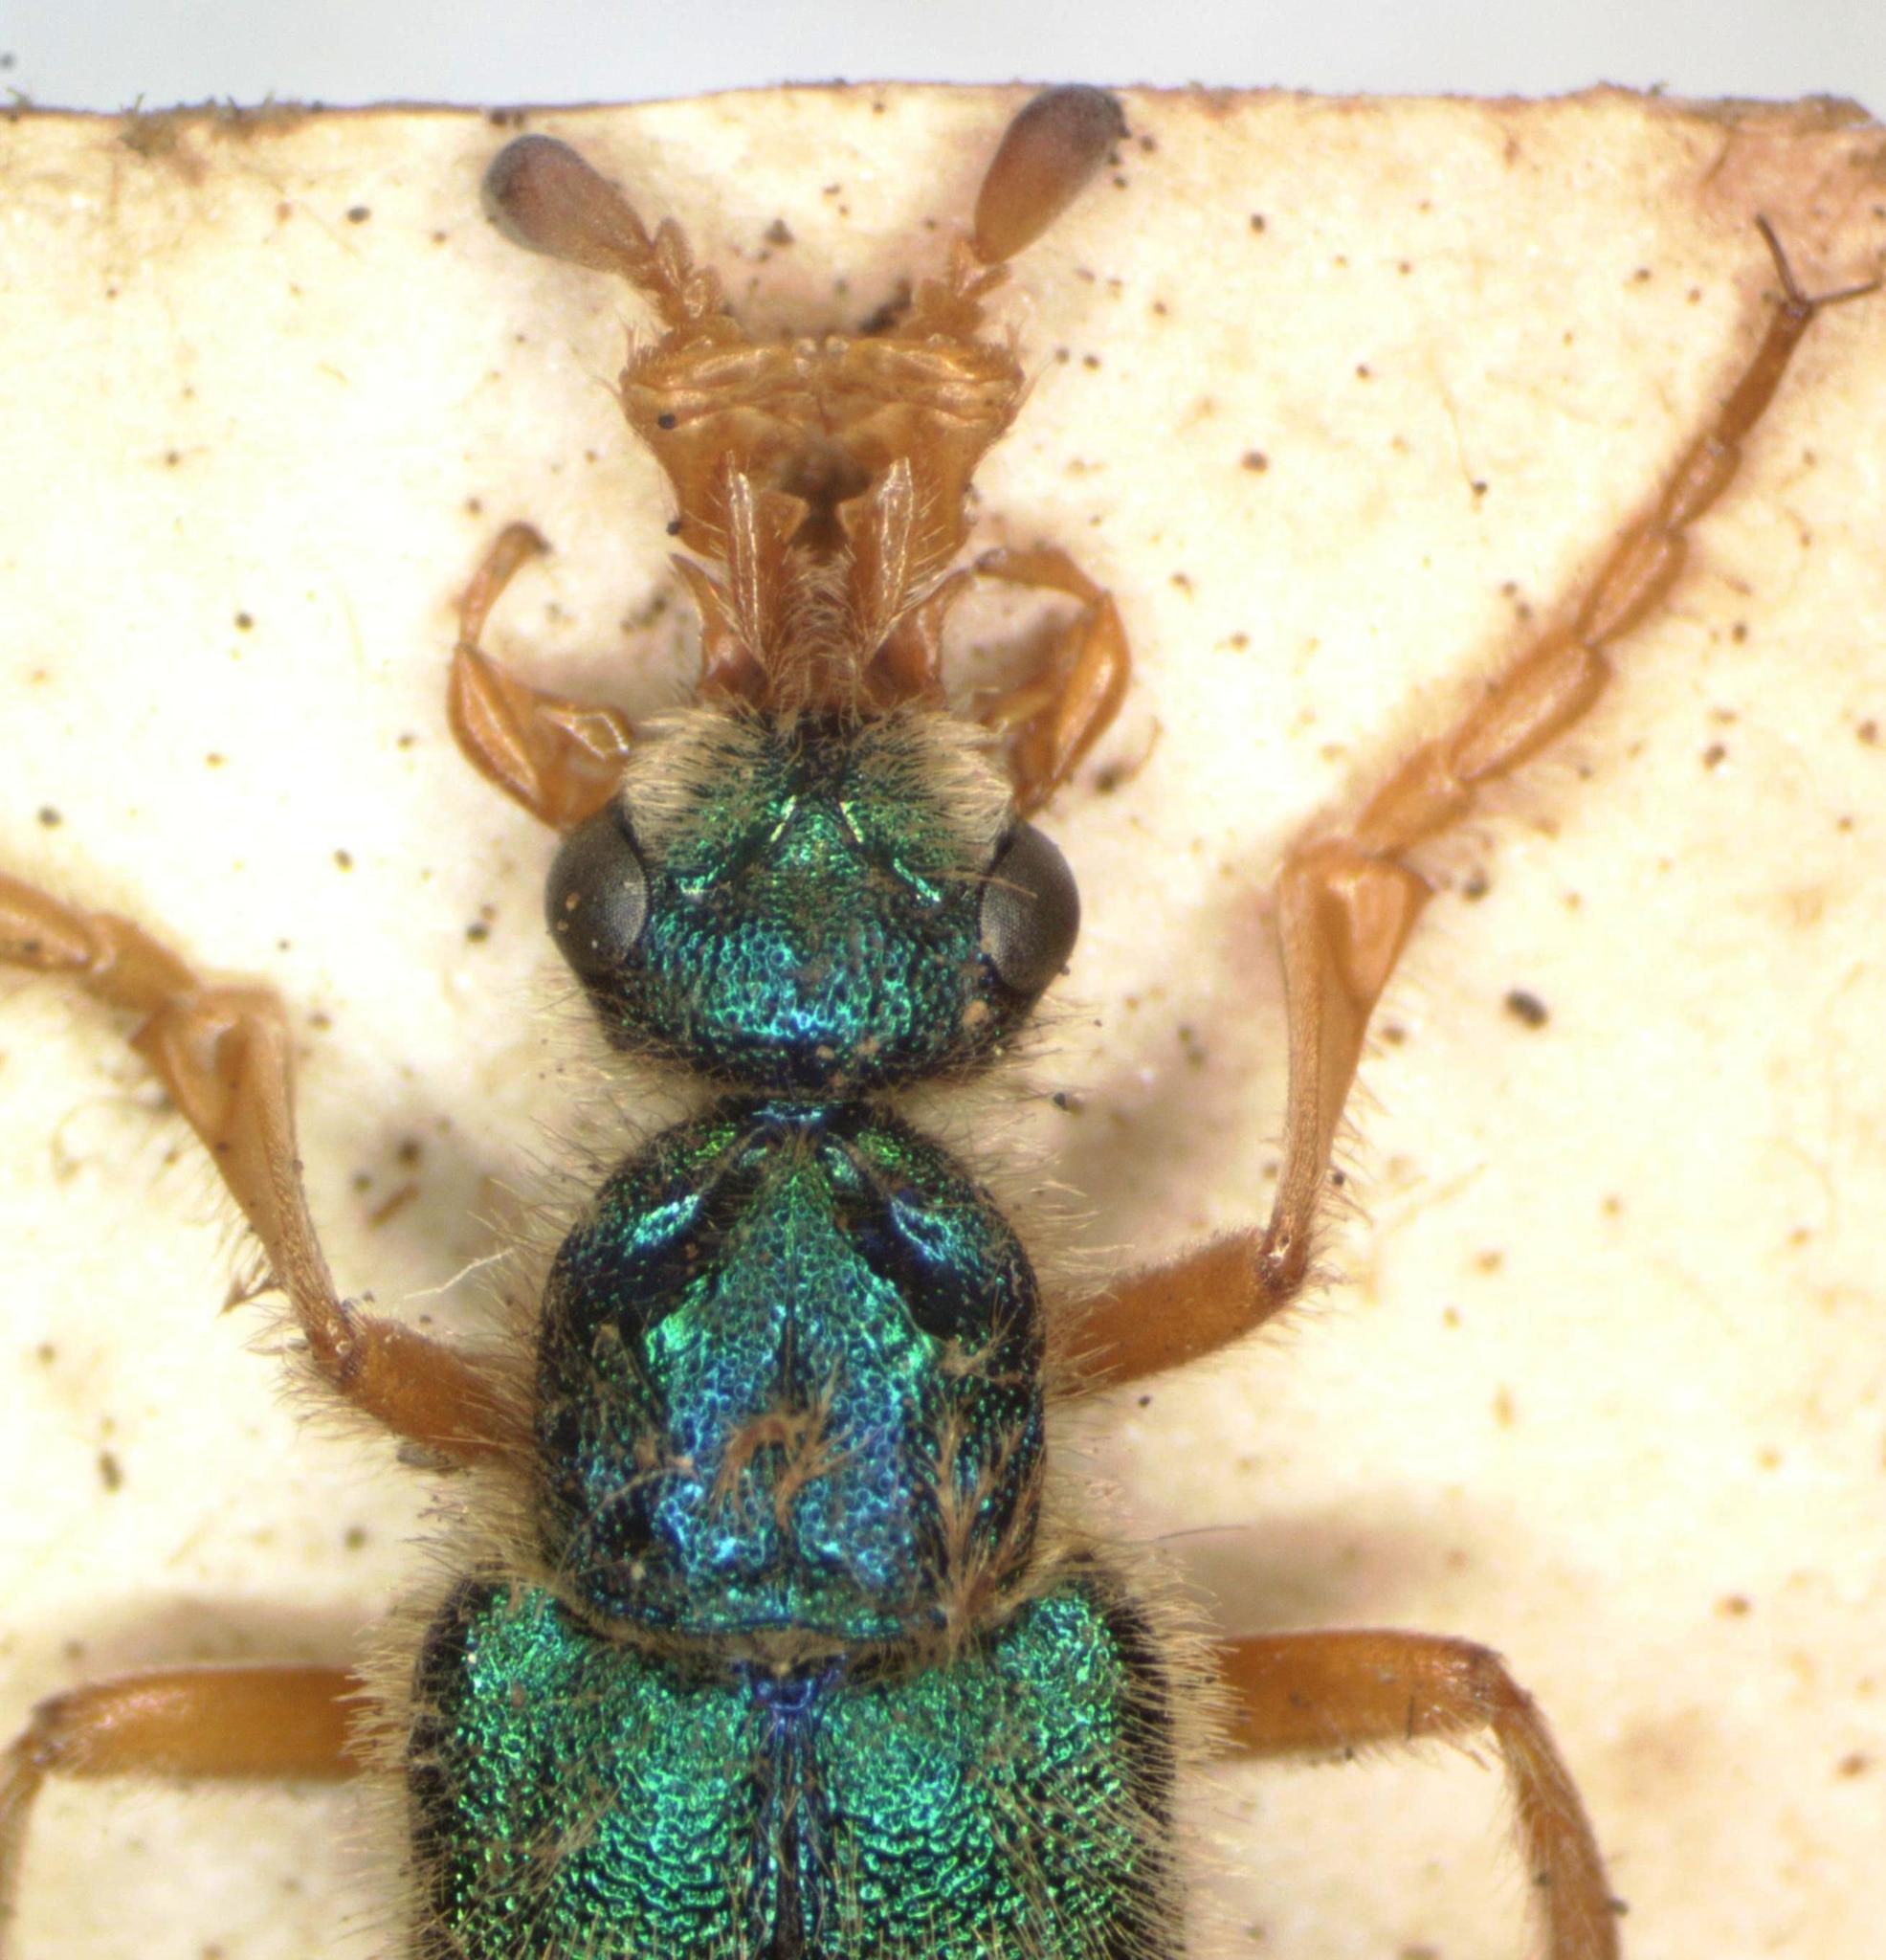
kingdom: Animalia
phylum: Arthropoda
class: Insecta
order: Coleoptera
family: Meloidae
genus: Cerocoma
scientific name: Cerocoma schaefferi
